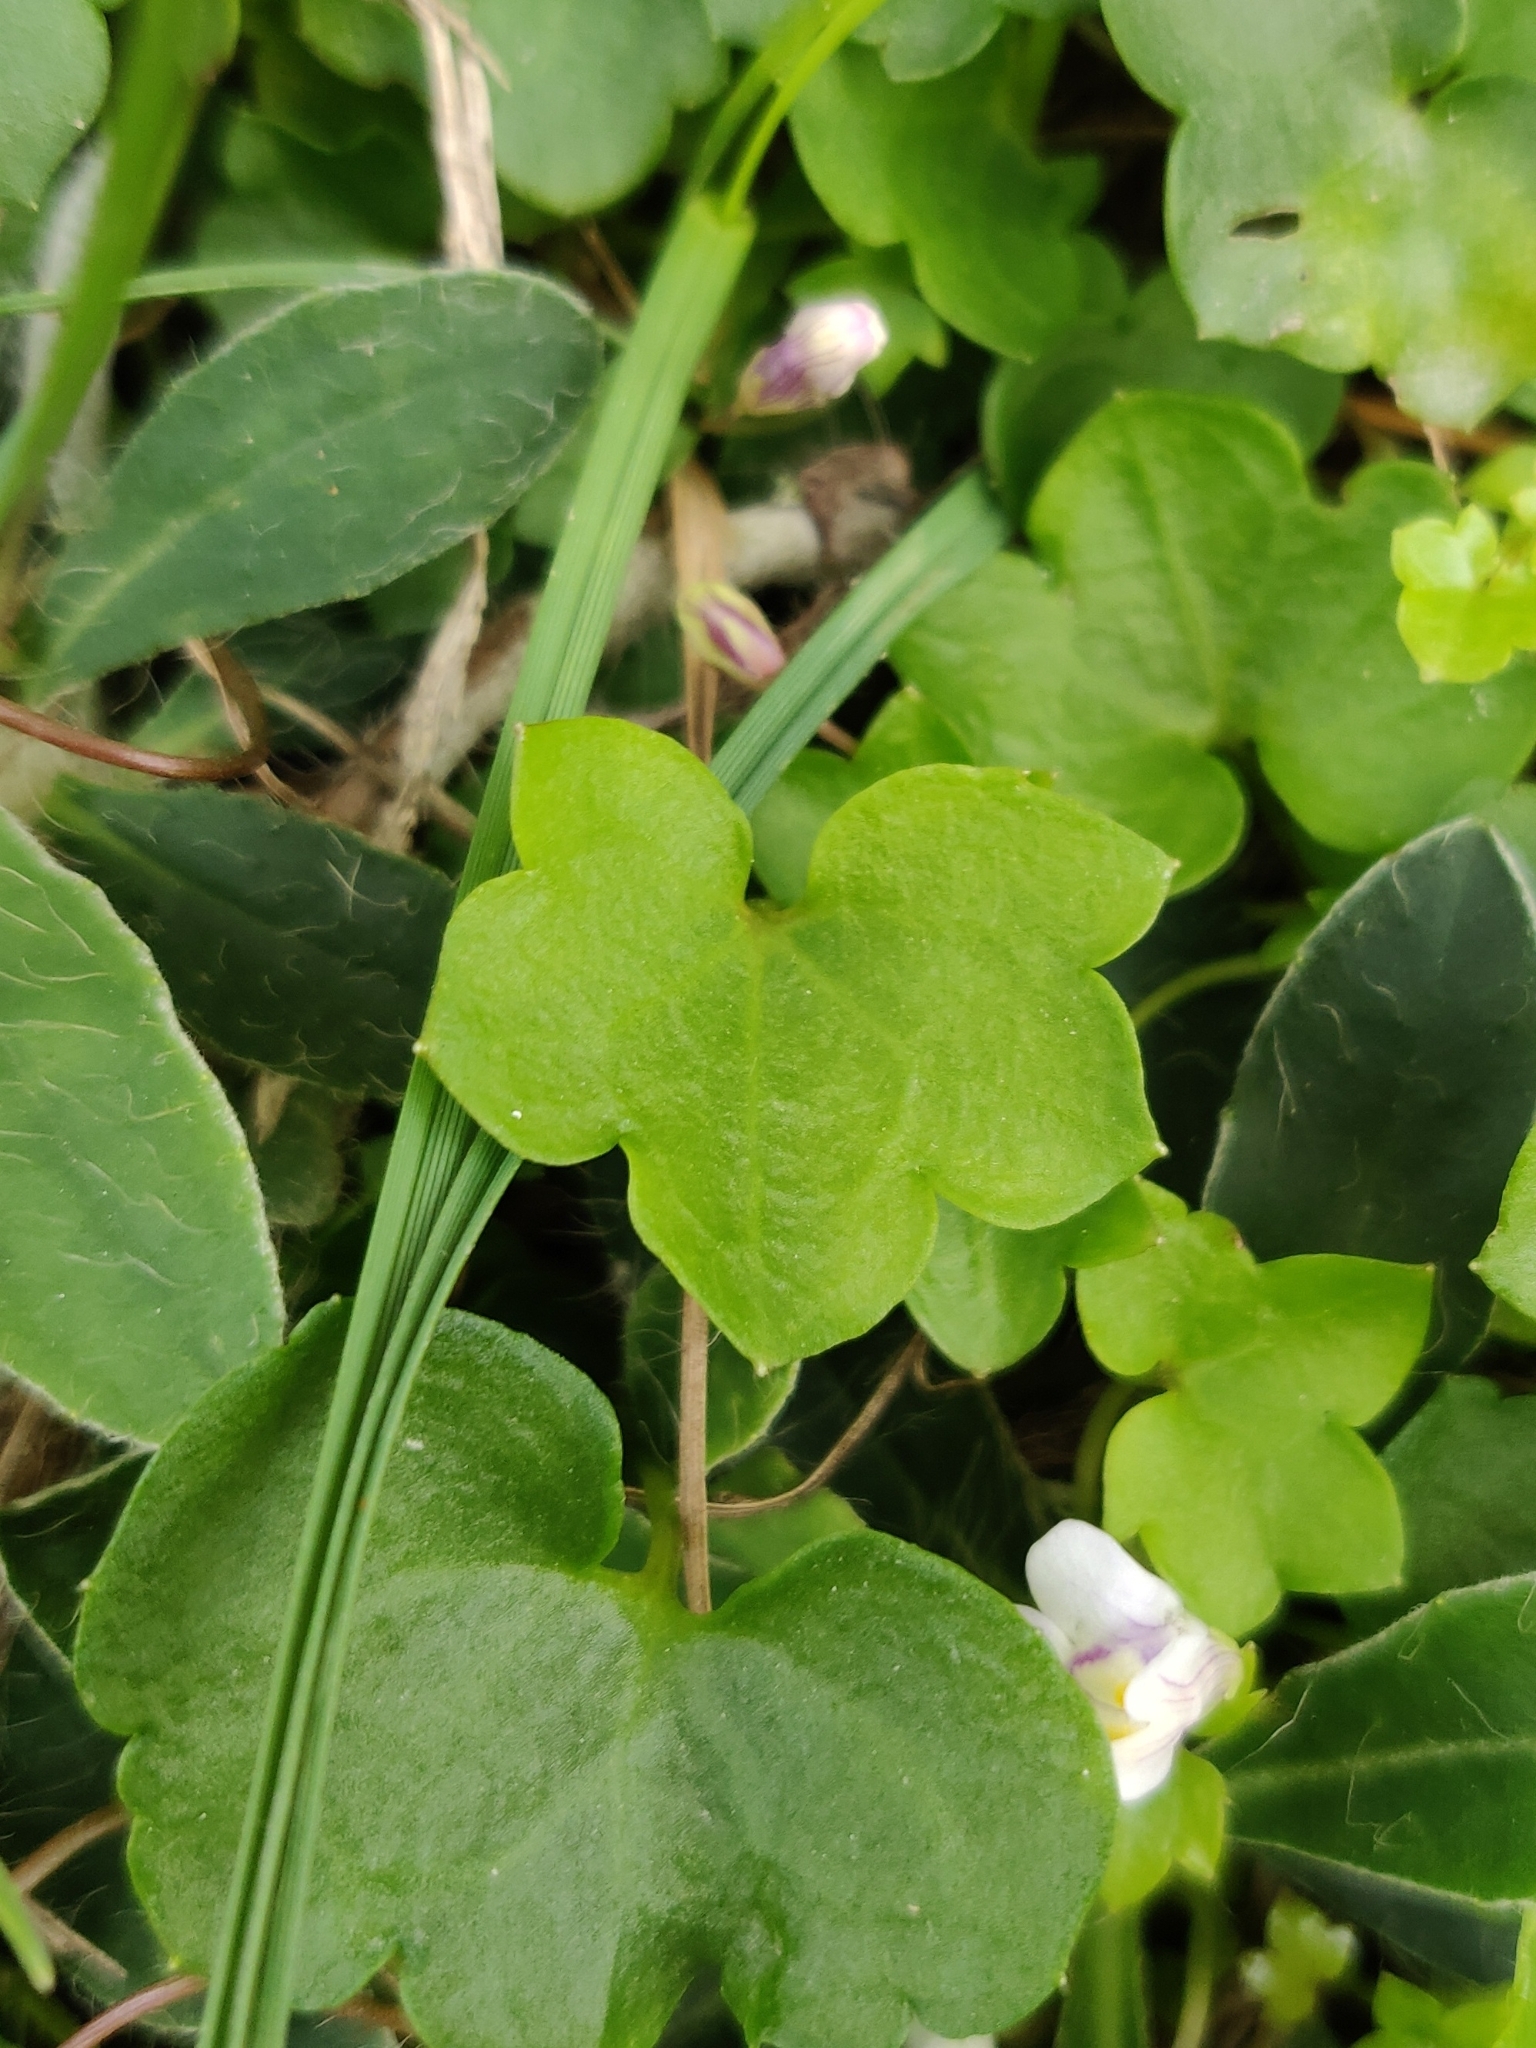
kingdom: Plantae
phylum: Tracheophyta
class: Magnoliopsida
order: Lamiales
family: Plantaginaceae
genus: Cymbalaria
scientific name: Cymbalaria muralis
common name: Ivy-leaved toadflax
